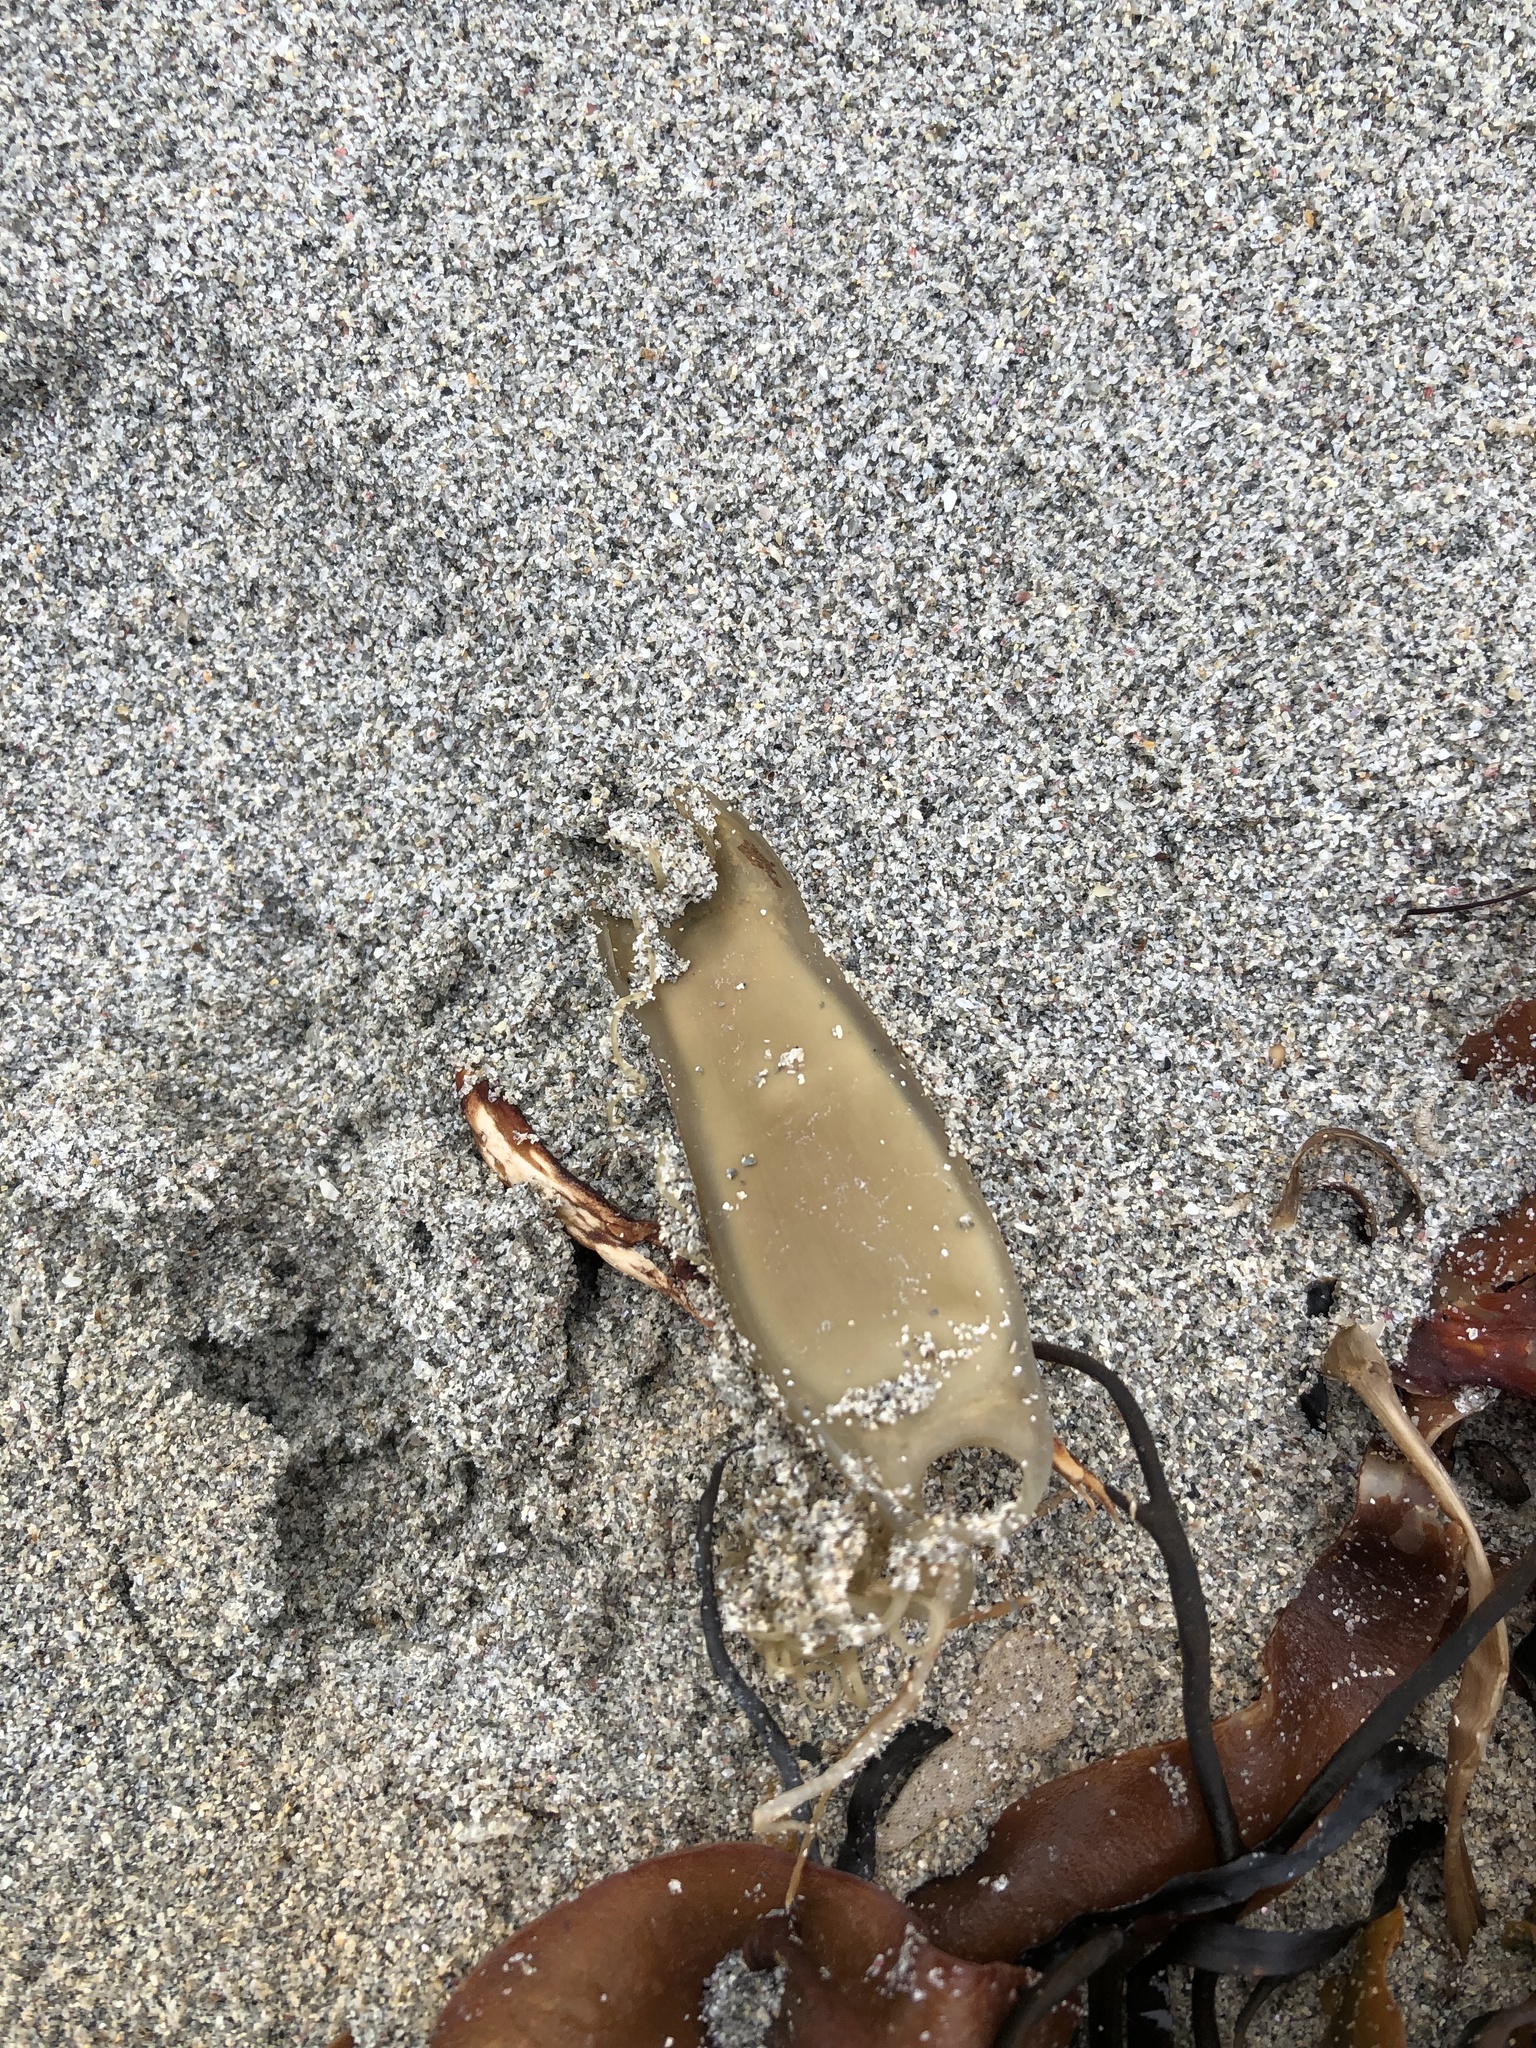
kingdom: Animalia
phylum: Chordata
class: Elasmobranchii
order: Carcharhiniformes
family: Scyliorhinidae
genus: Scyliorhinus
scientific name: Scyliorhinus canicula
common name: Lesser spotted dogfish
